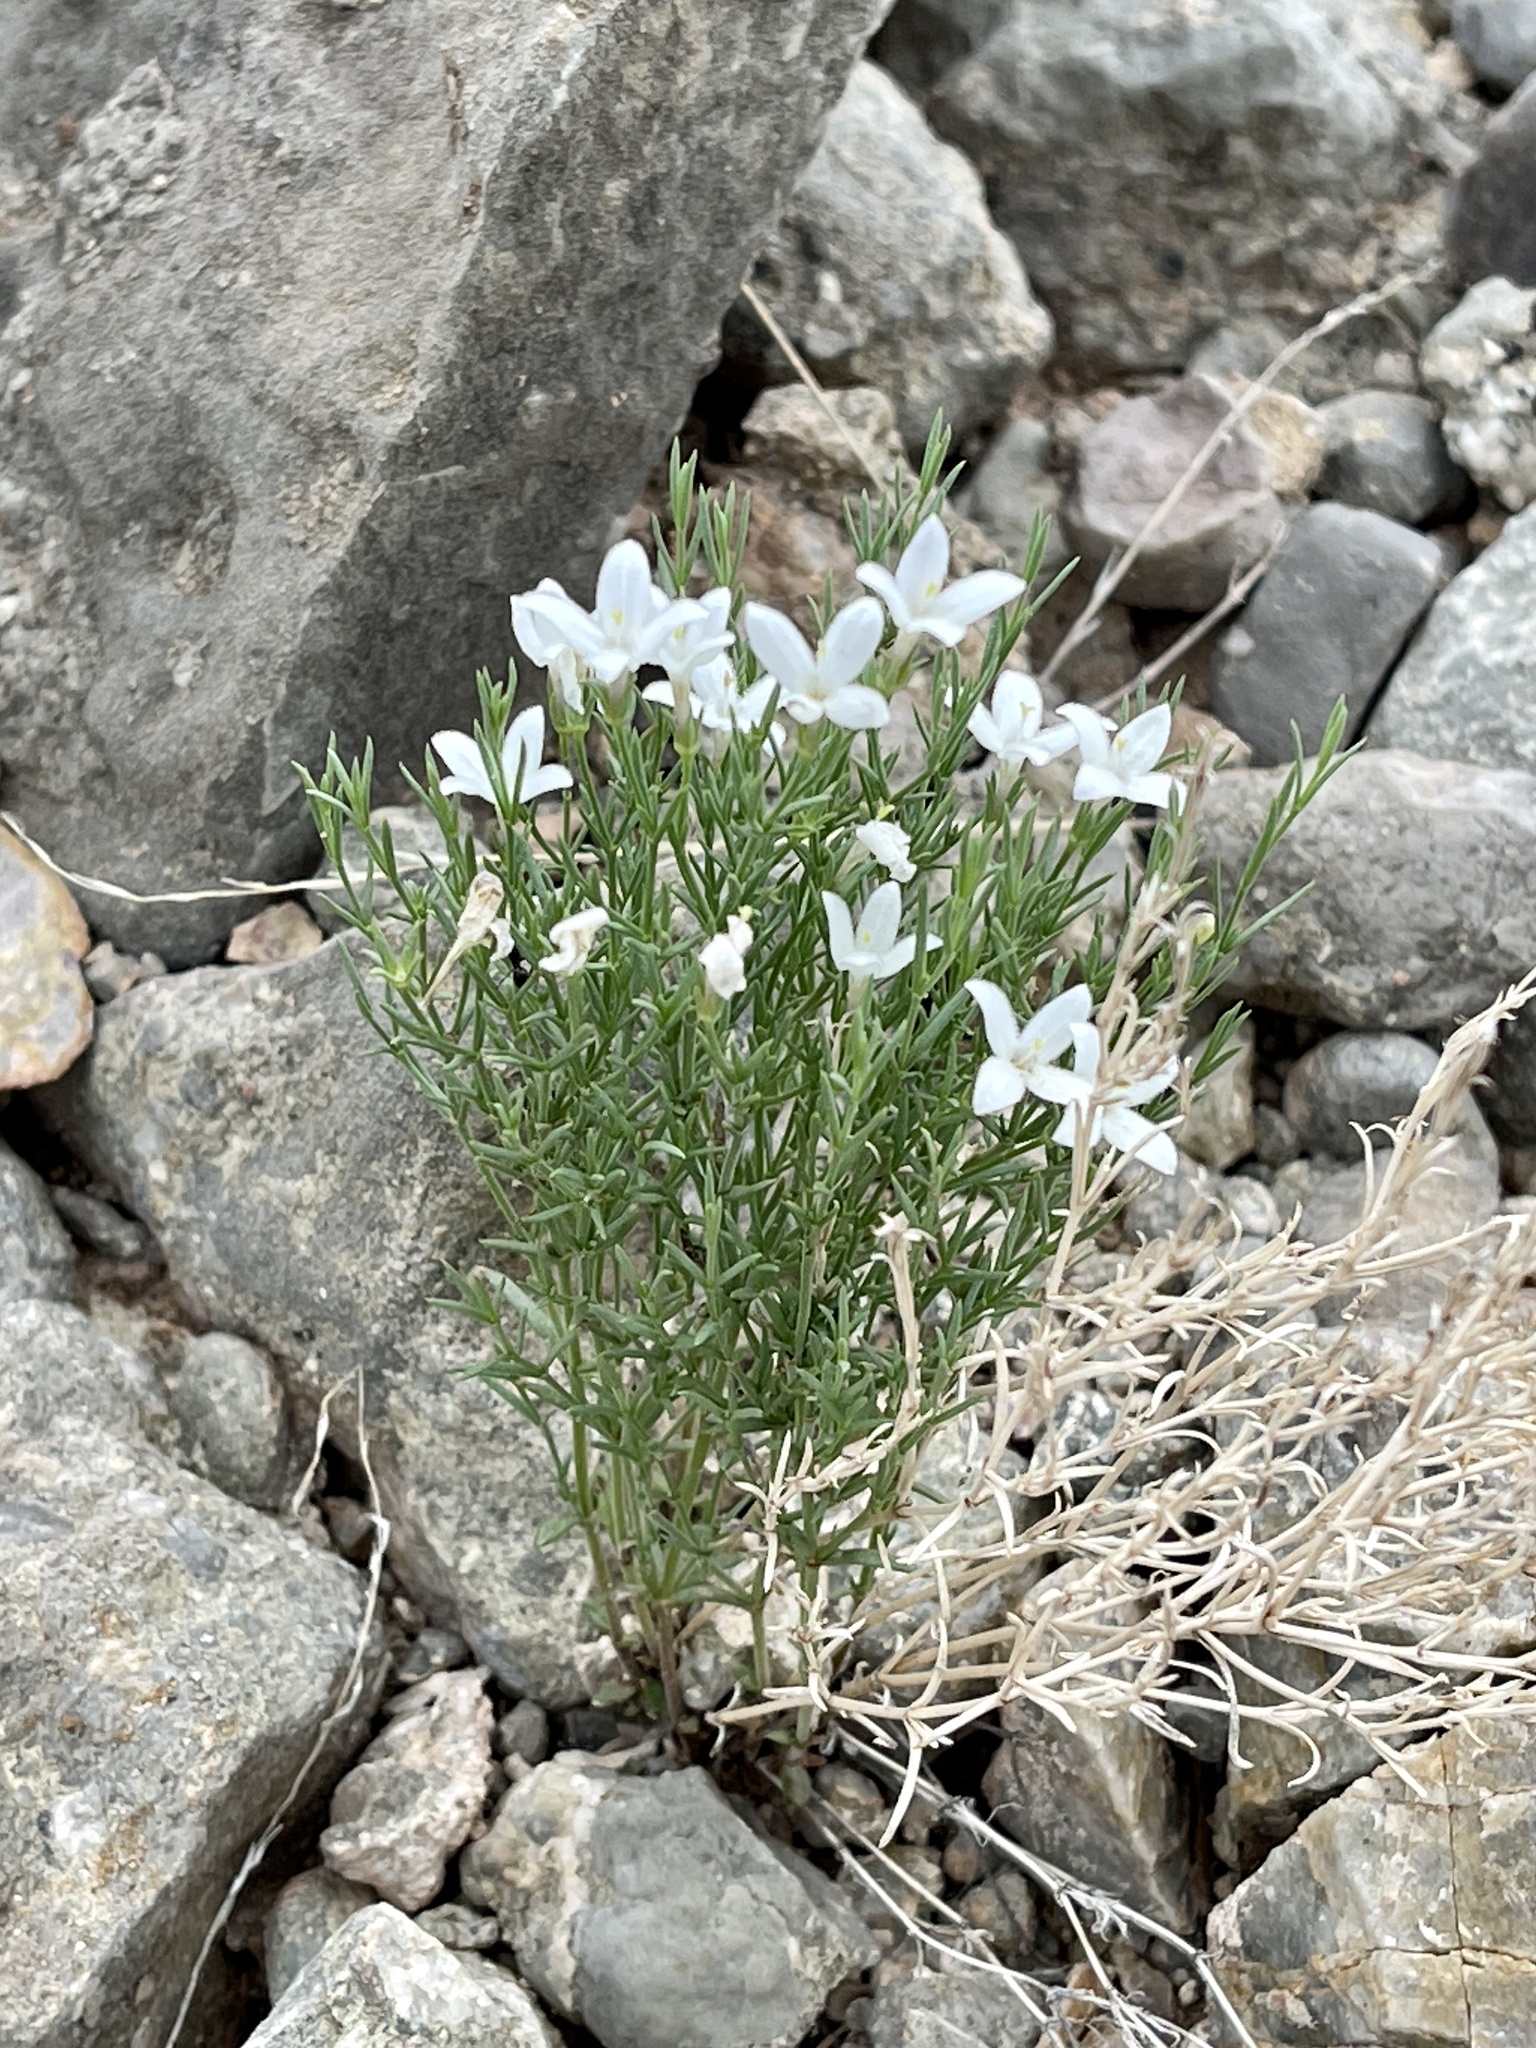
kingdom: Plantae
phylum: Tracheophyta
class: Magnoliopsida
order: Gentianales
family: Rubiaceae
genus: Houstonia
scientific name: Houstonia acerosa
